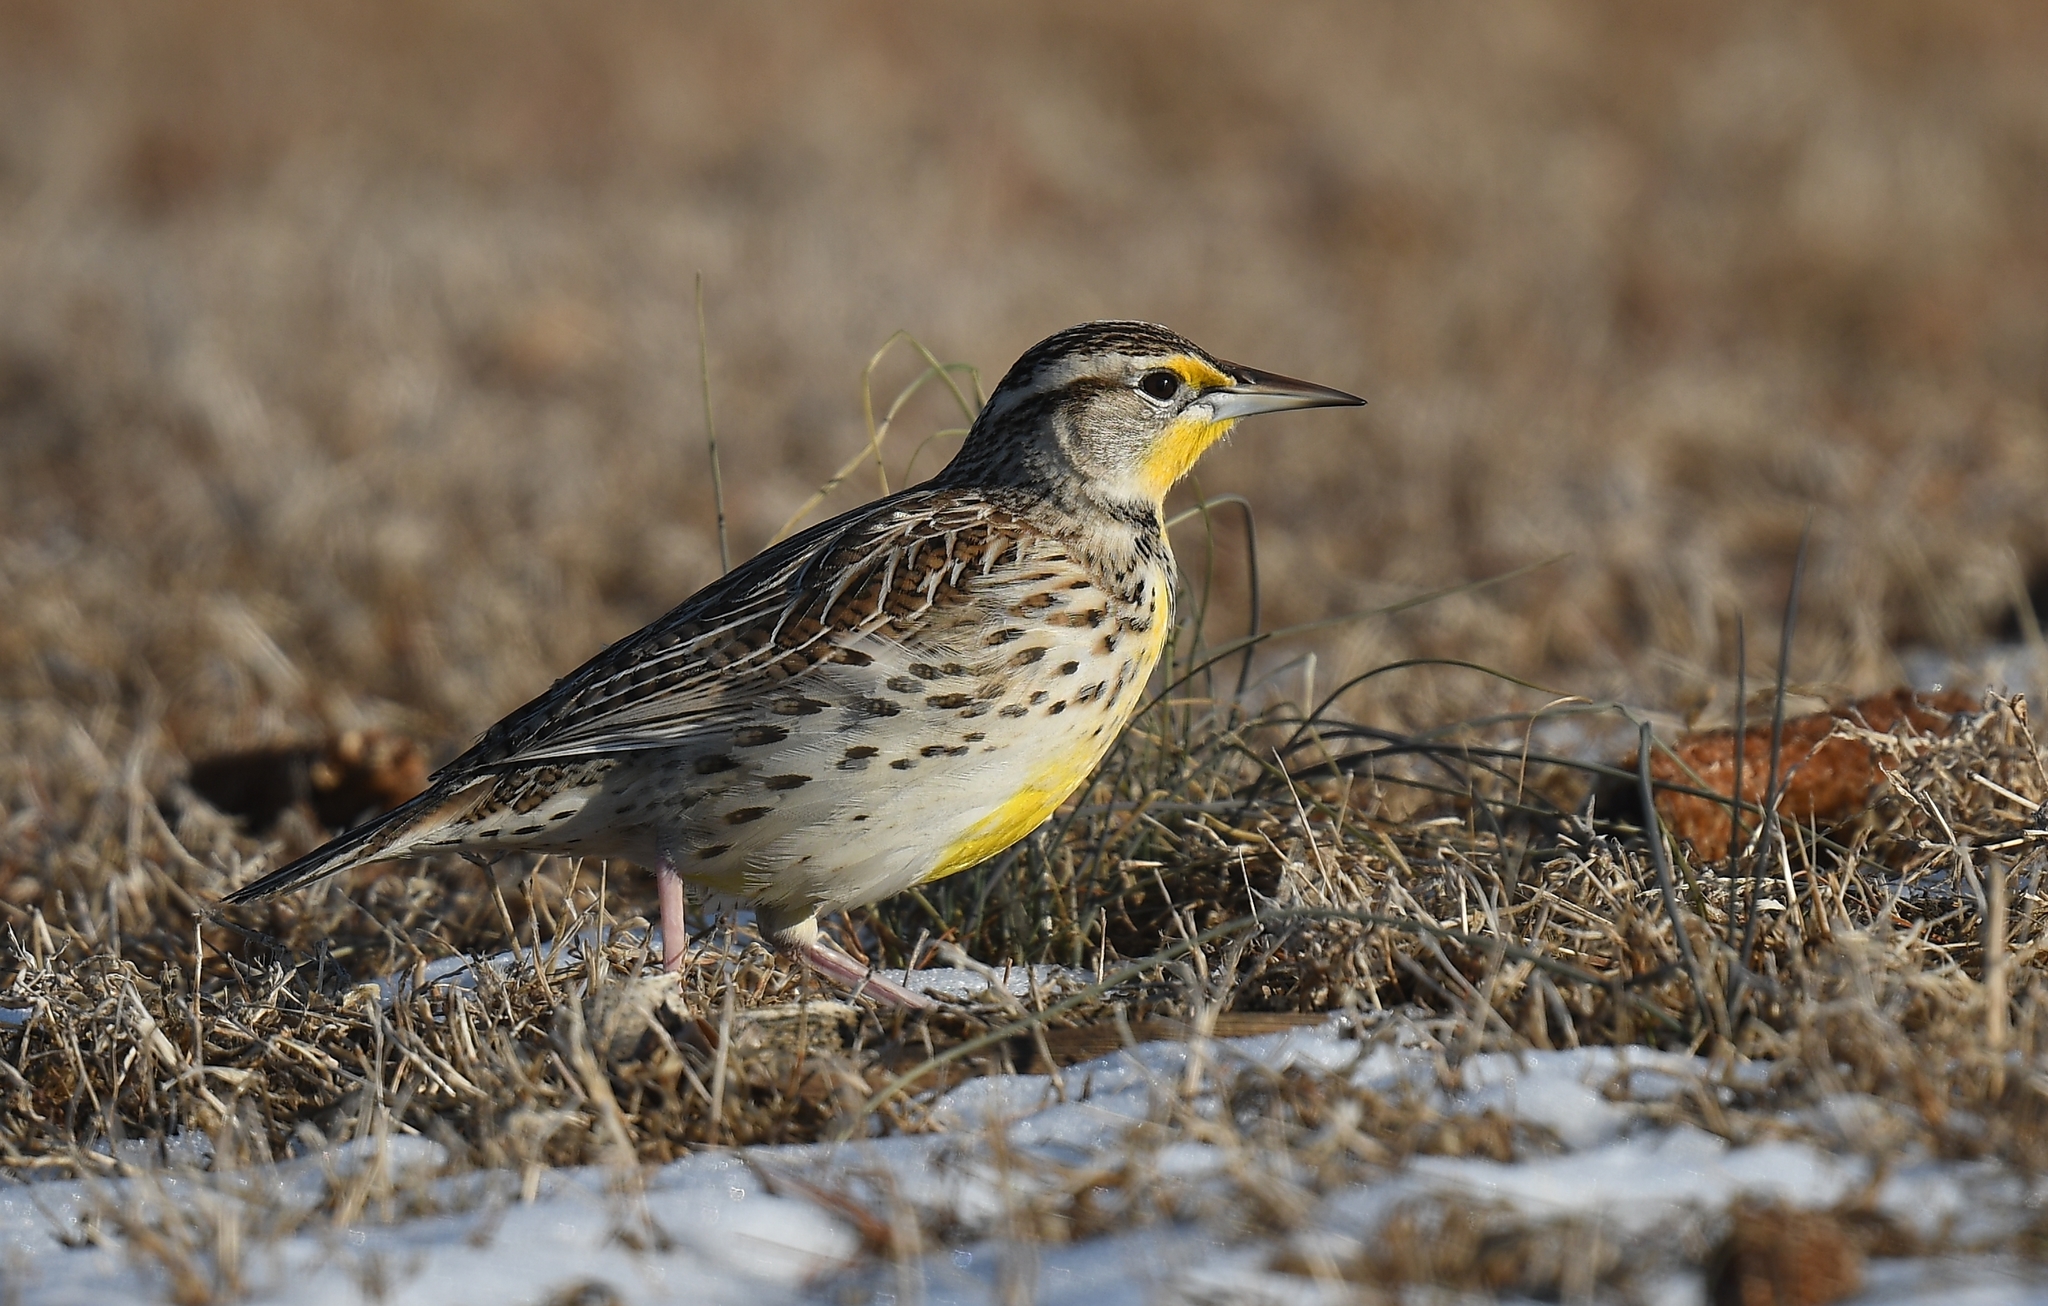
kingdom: Animalia
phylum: Chordata
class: Aves
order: Passeriformes
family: Icteridae
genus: Sturnella
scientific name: Sturnella neglecta
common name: Western meadowlark
